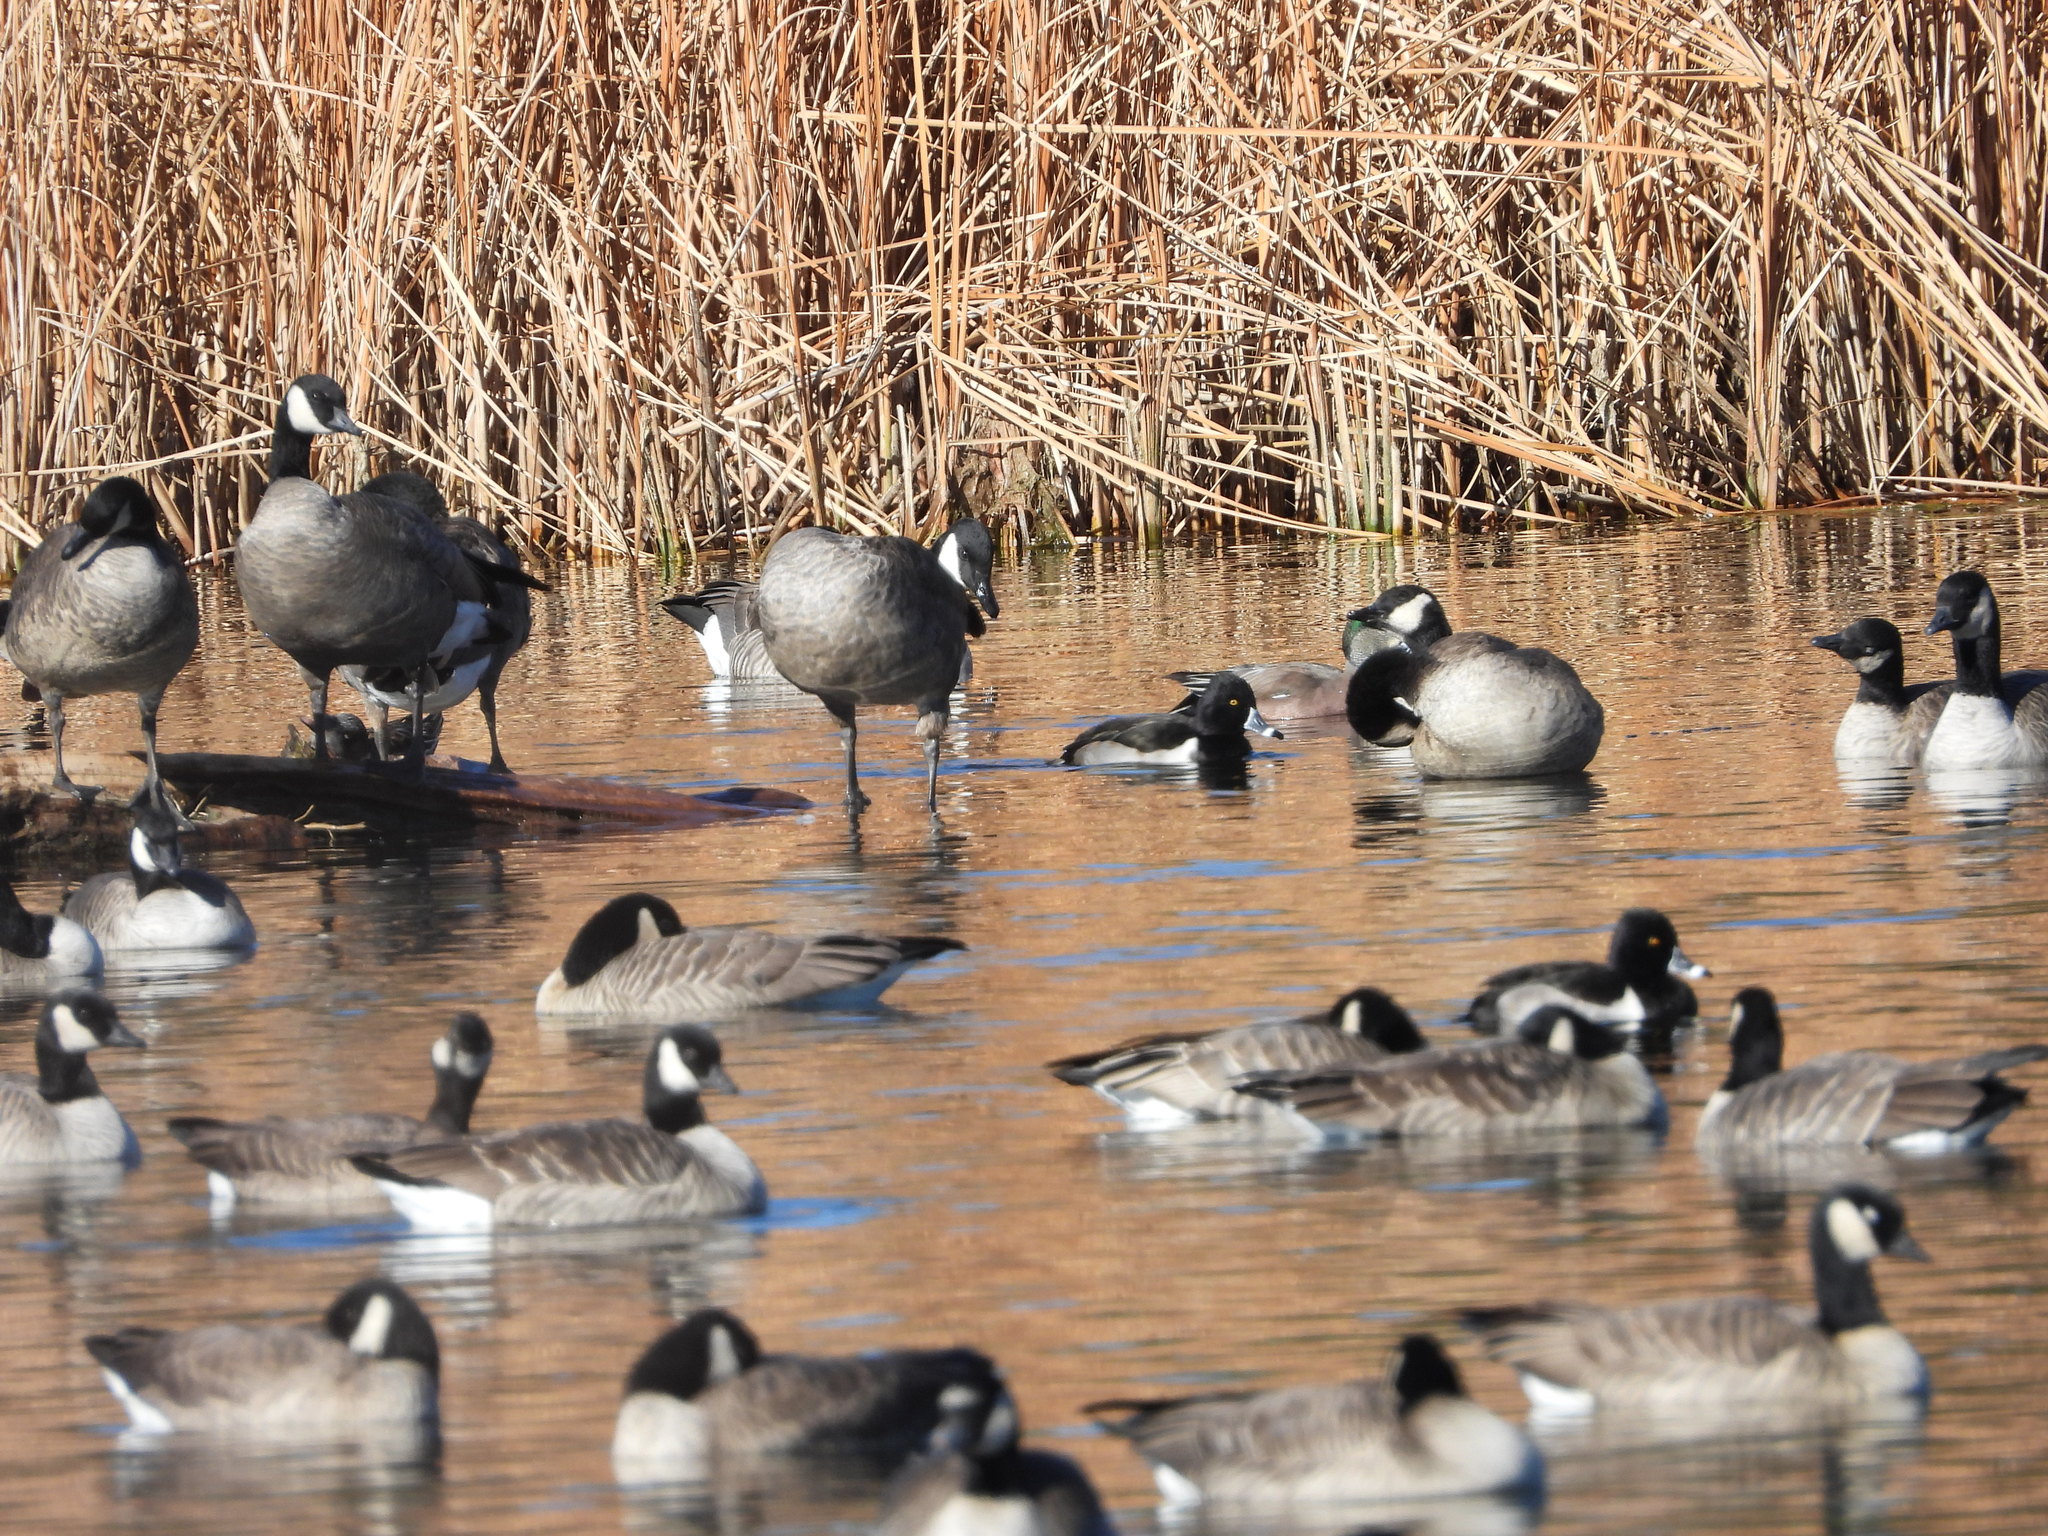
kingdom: Animalia
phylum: Chordata
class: Aves
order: Anseriformes
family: Anatidae
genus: Aythya
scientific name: Aythya collaris
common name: Ring-necked duck
